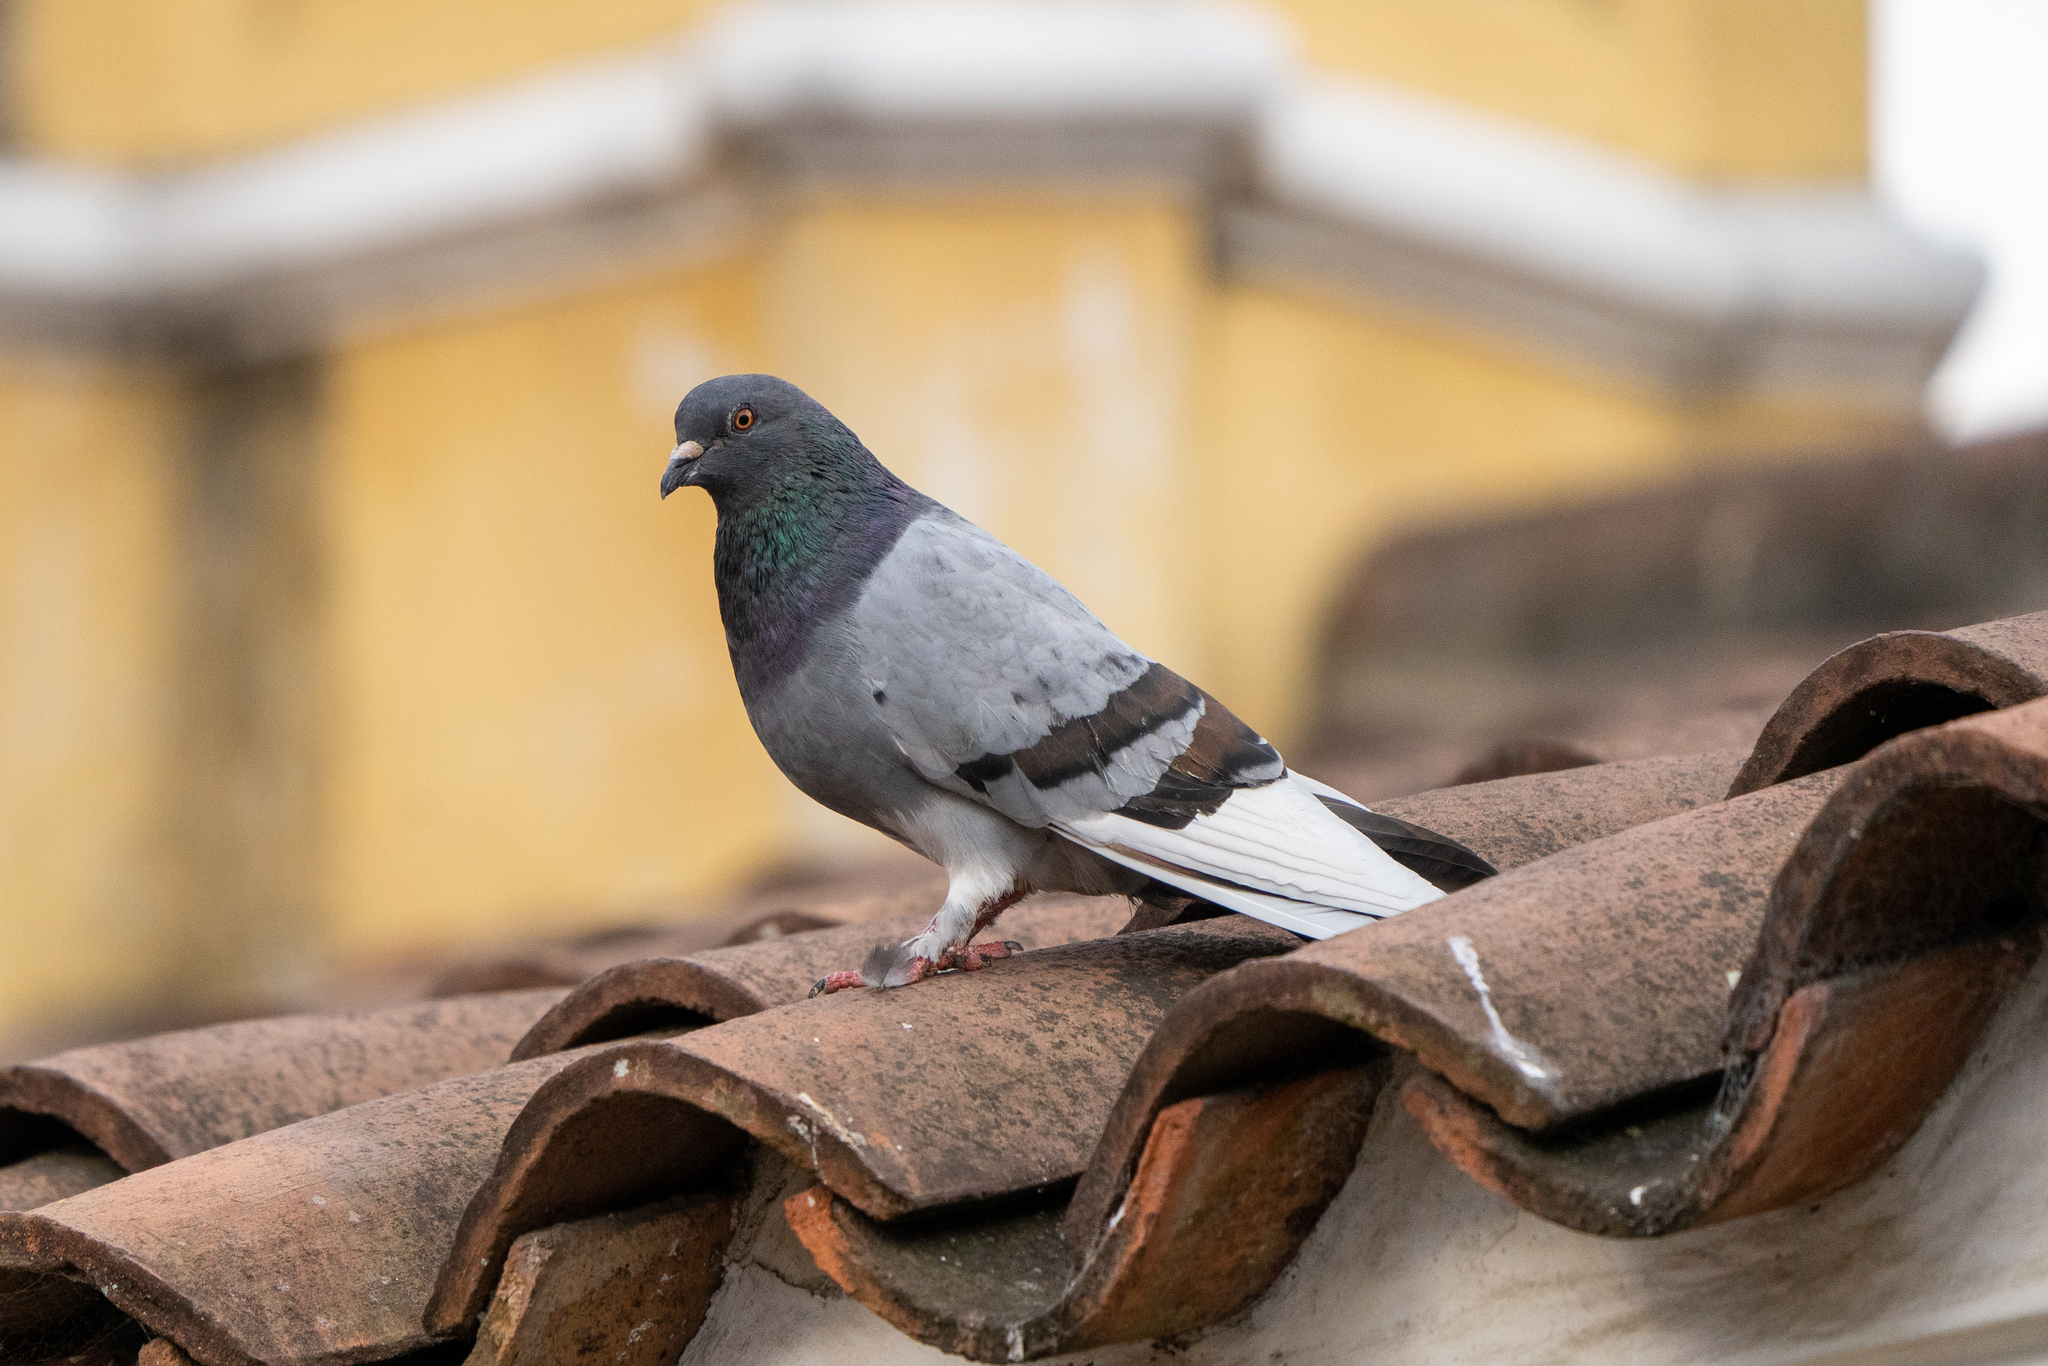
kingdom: Animalia
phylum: Chordata
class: Aves
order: Columbiformes
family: Columbidae
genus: Columba
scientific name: Columba livia
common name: Rock pigeon
